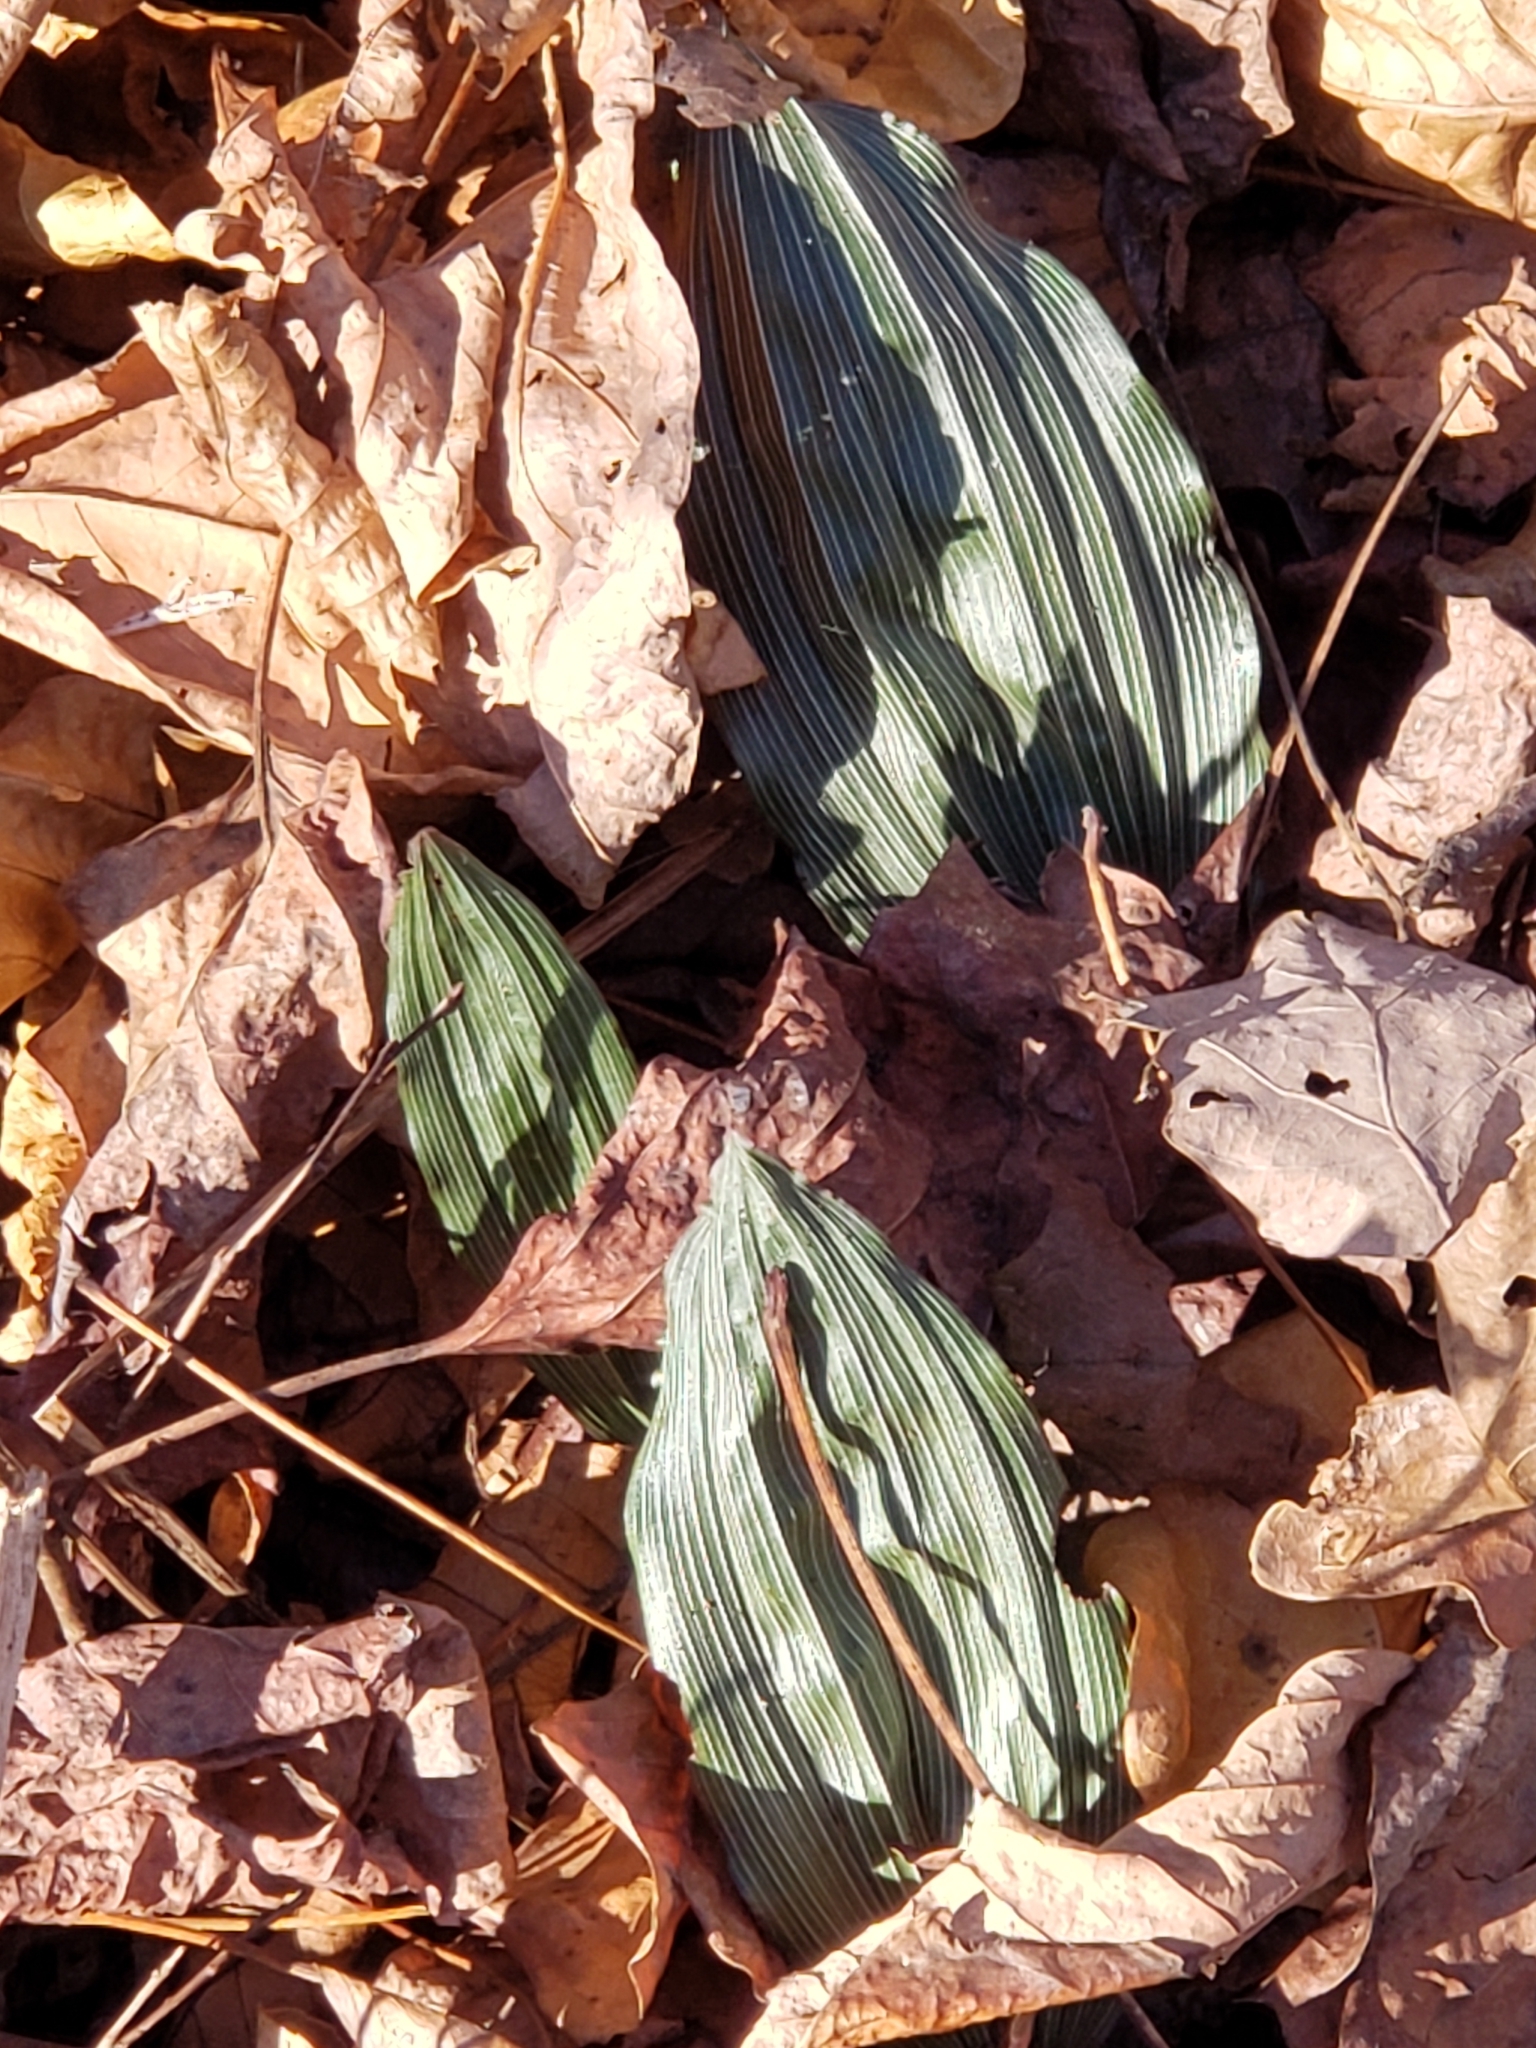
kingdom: Plantae
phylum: Tracheophyta
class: Liliopsida
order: Asparagales
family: Orchidaceae
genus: Aplectrum
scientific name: Aplectrum hyemale
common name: Adam-and-eve
